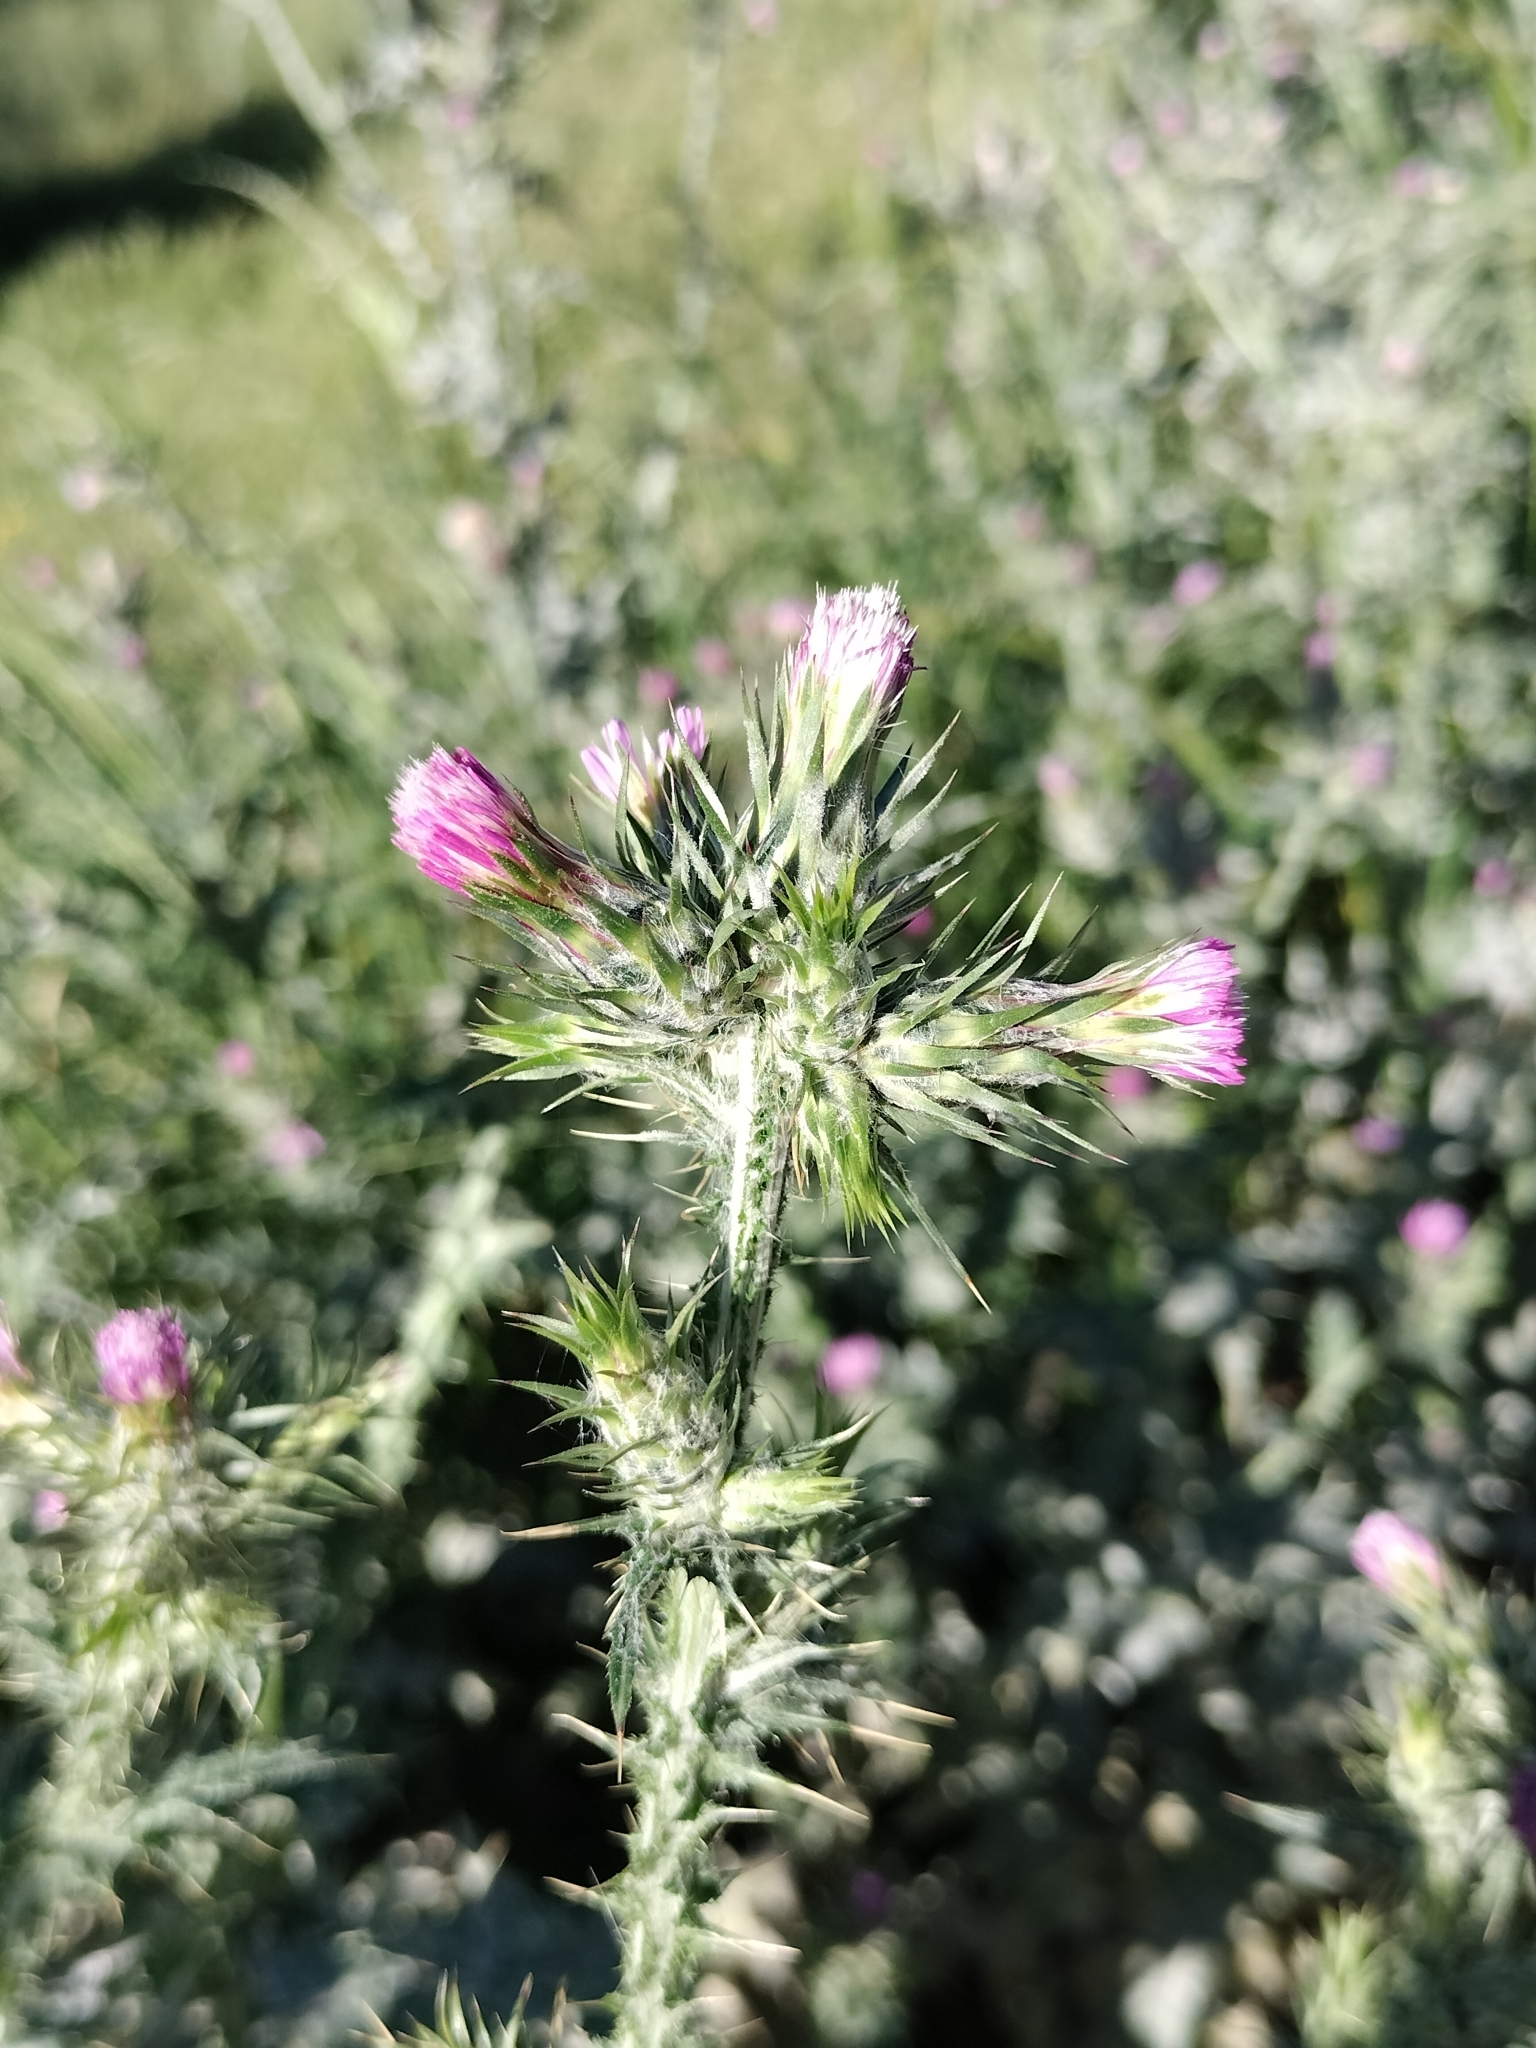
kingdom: Plantae
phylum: Tracheophyta
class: Magnoliopsida
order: Asterales
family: Asteraceae
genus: Carduus
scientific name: Carduus tenuiflorus
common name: Slender thistle
